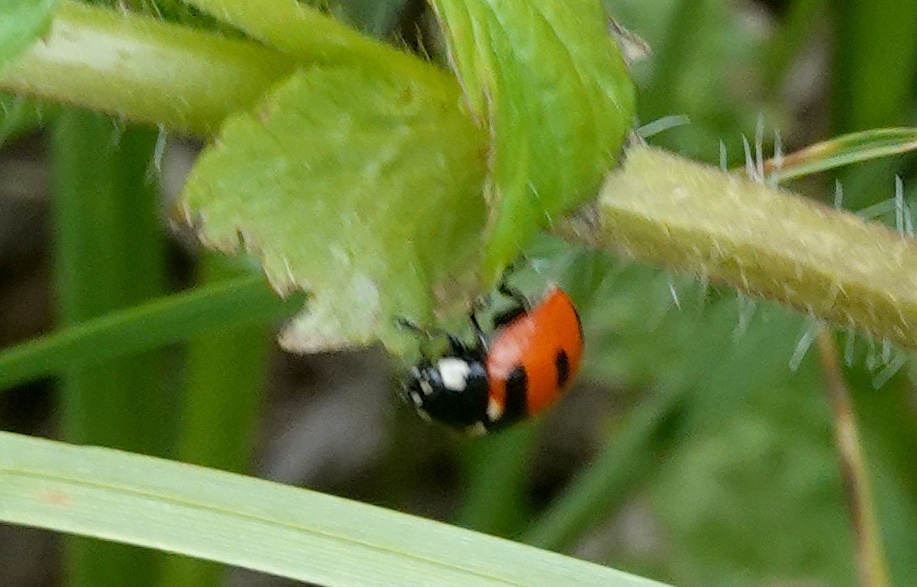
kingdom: Animalia
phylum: Arthropoda
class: Insecta
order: Coleoptera
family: Coccinellidae
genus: Coccinella
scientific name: Coccinella transversoguttata
